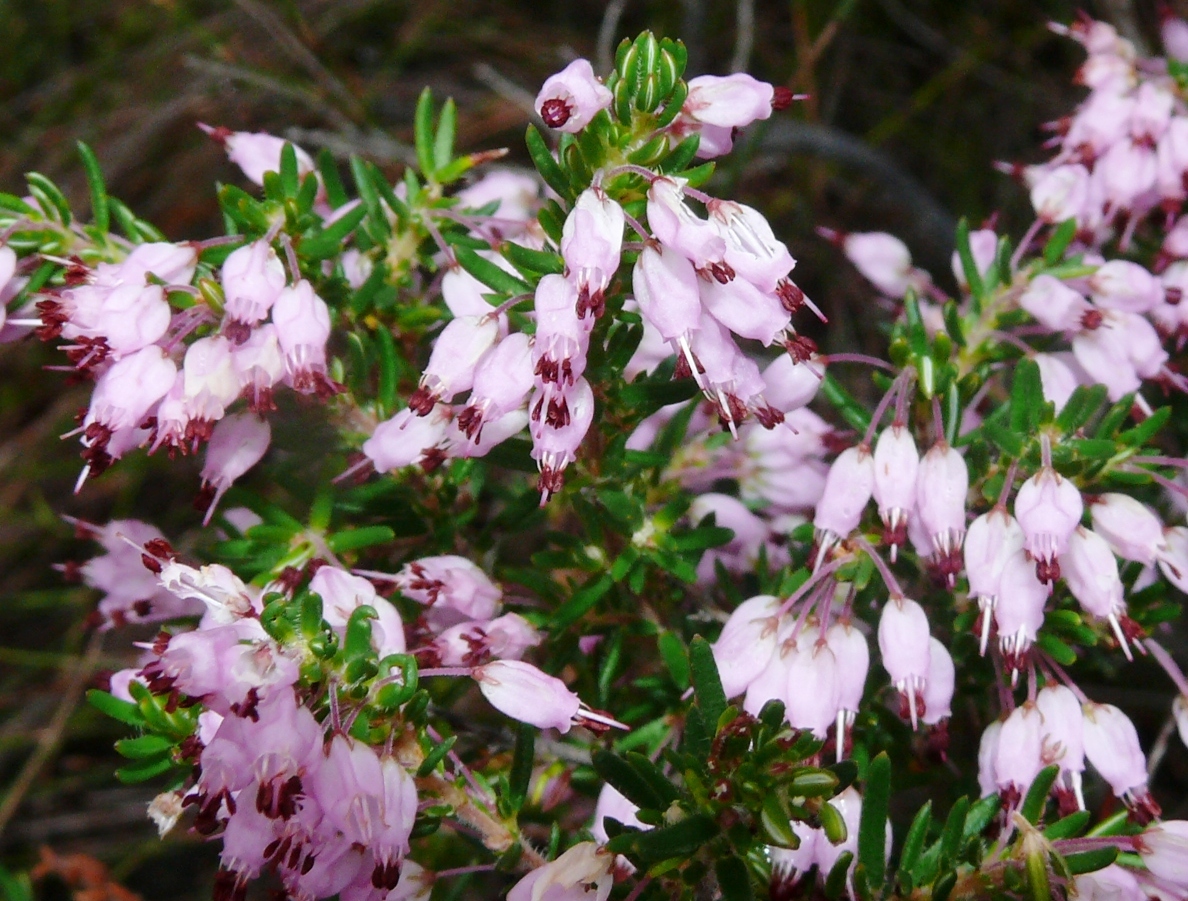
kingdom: Plantae
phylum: Tracheophyta
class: Magnoliopsida
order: Ericales
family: Ericaceae
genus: Erica
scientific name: Erica nudiflora
